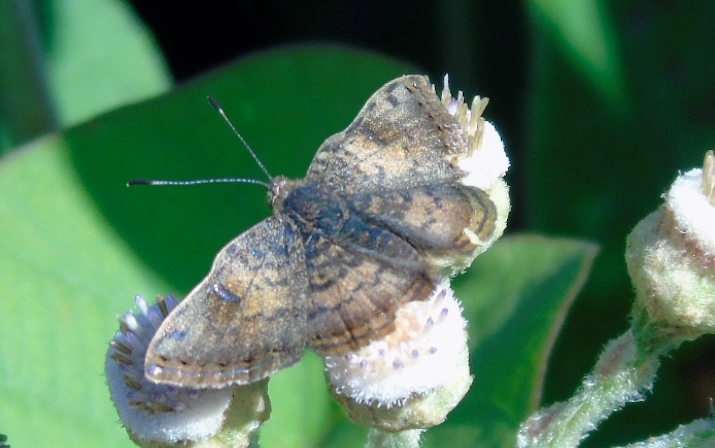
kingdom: Animalia
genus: Caria
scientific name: Caria ino
